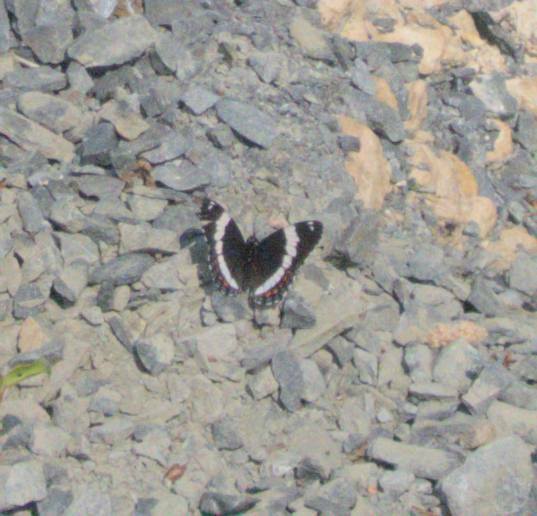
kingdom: Animalia
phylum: Arthropoda
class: Insecta
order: Lepidoptera
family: Nymphalidae
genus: Limenitis
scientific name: Limenitis arthemis
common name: Red-spotted admiral
